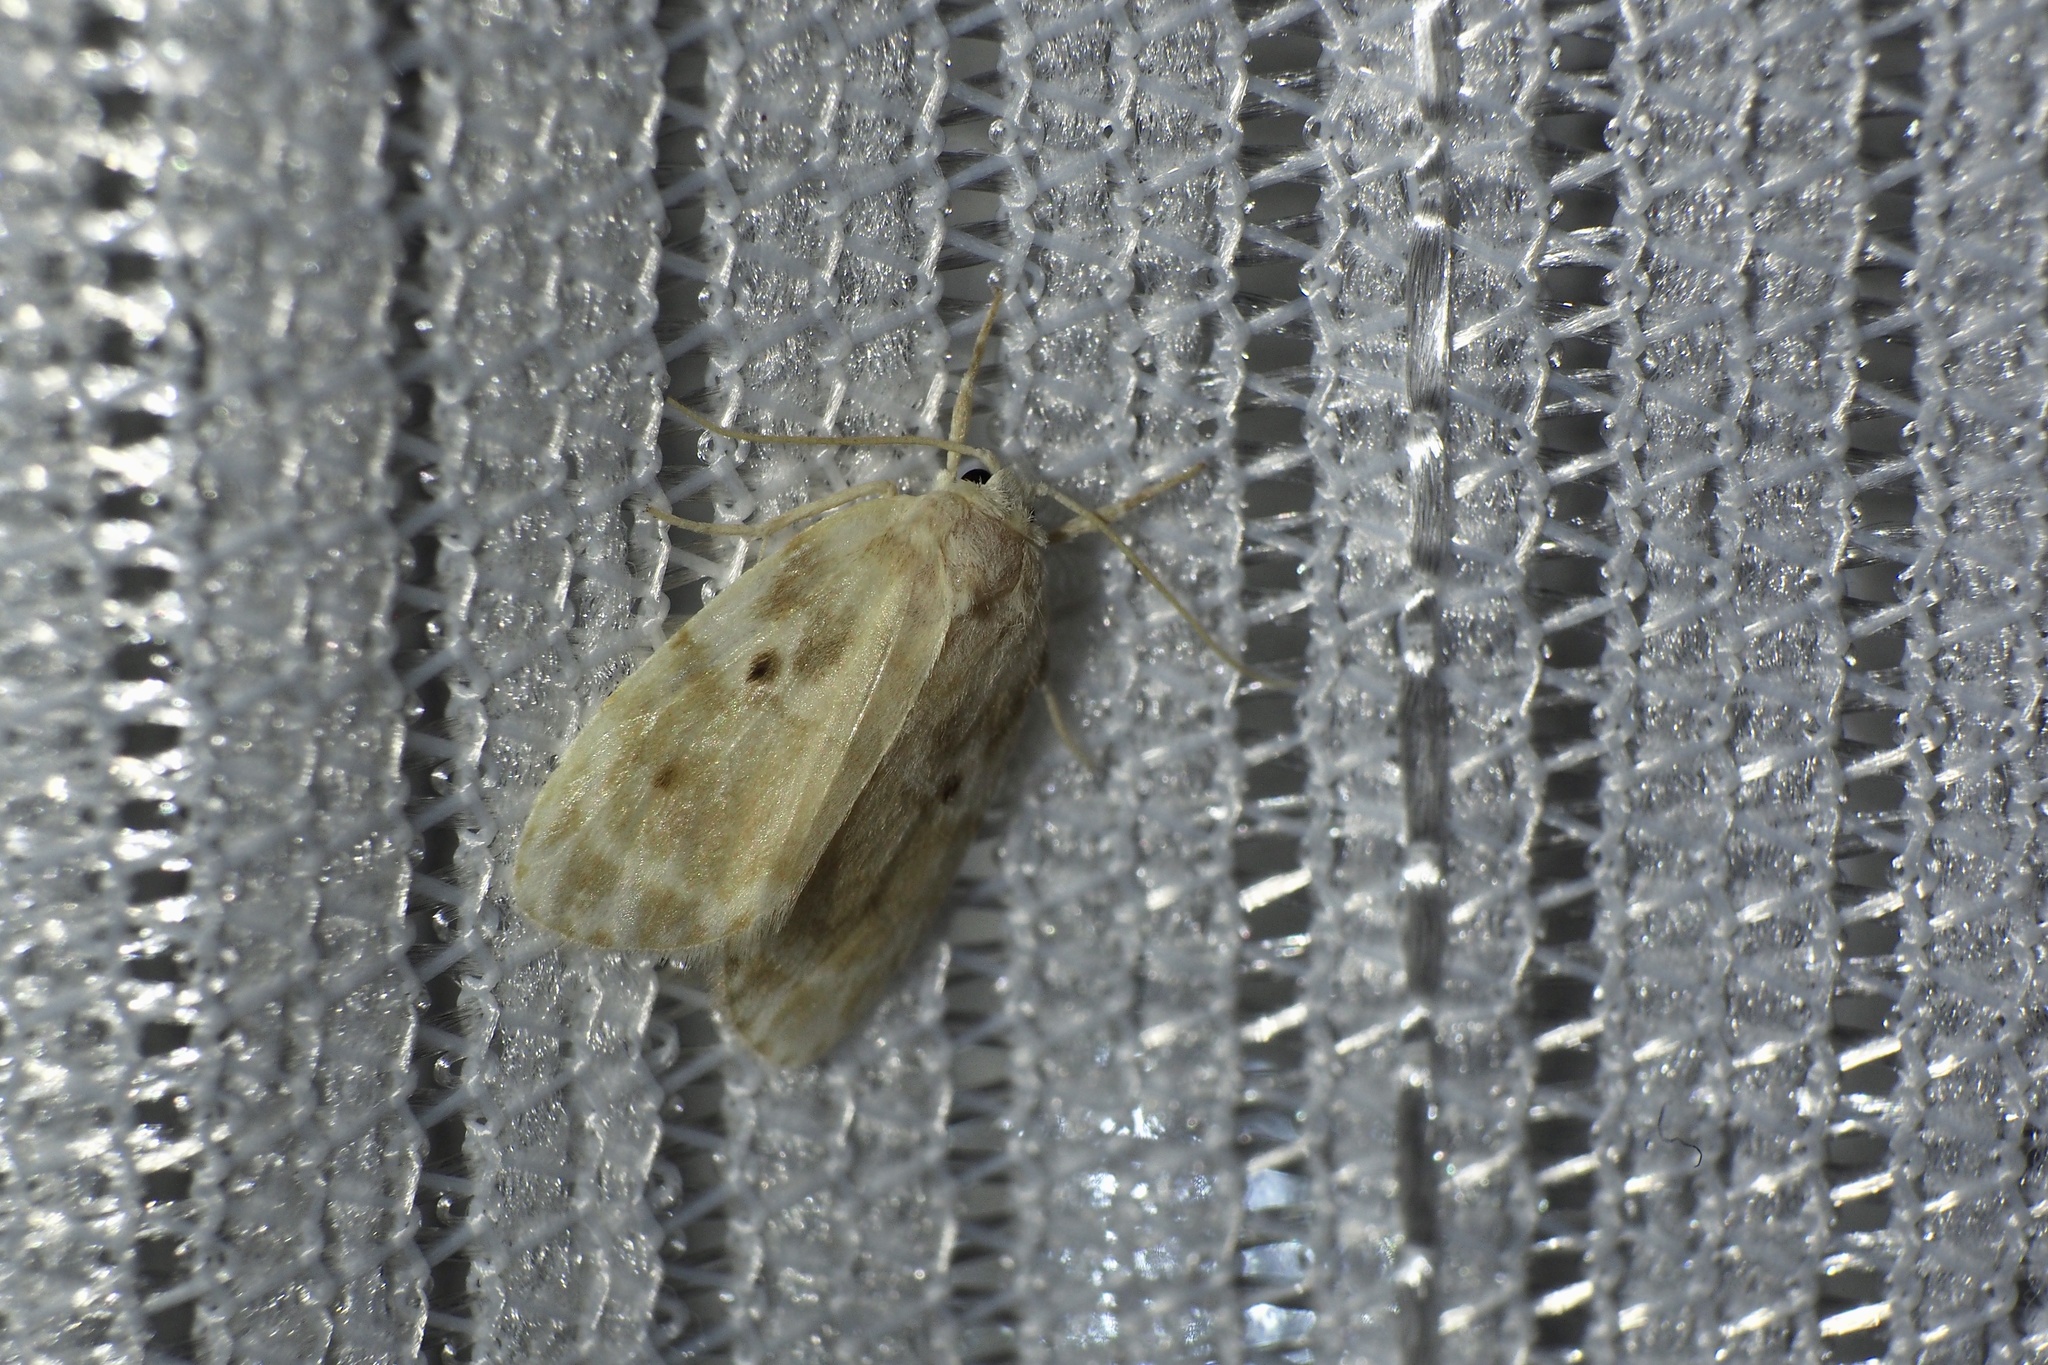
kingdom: Animalia
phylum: Arthropoda
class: Insecta
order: Lepidoptera
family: Erebidae
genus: Schistophleps
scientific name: Schistophleps bipuncta
